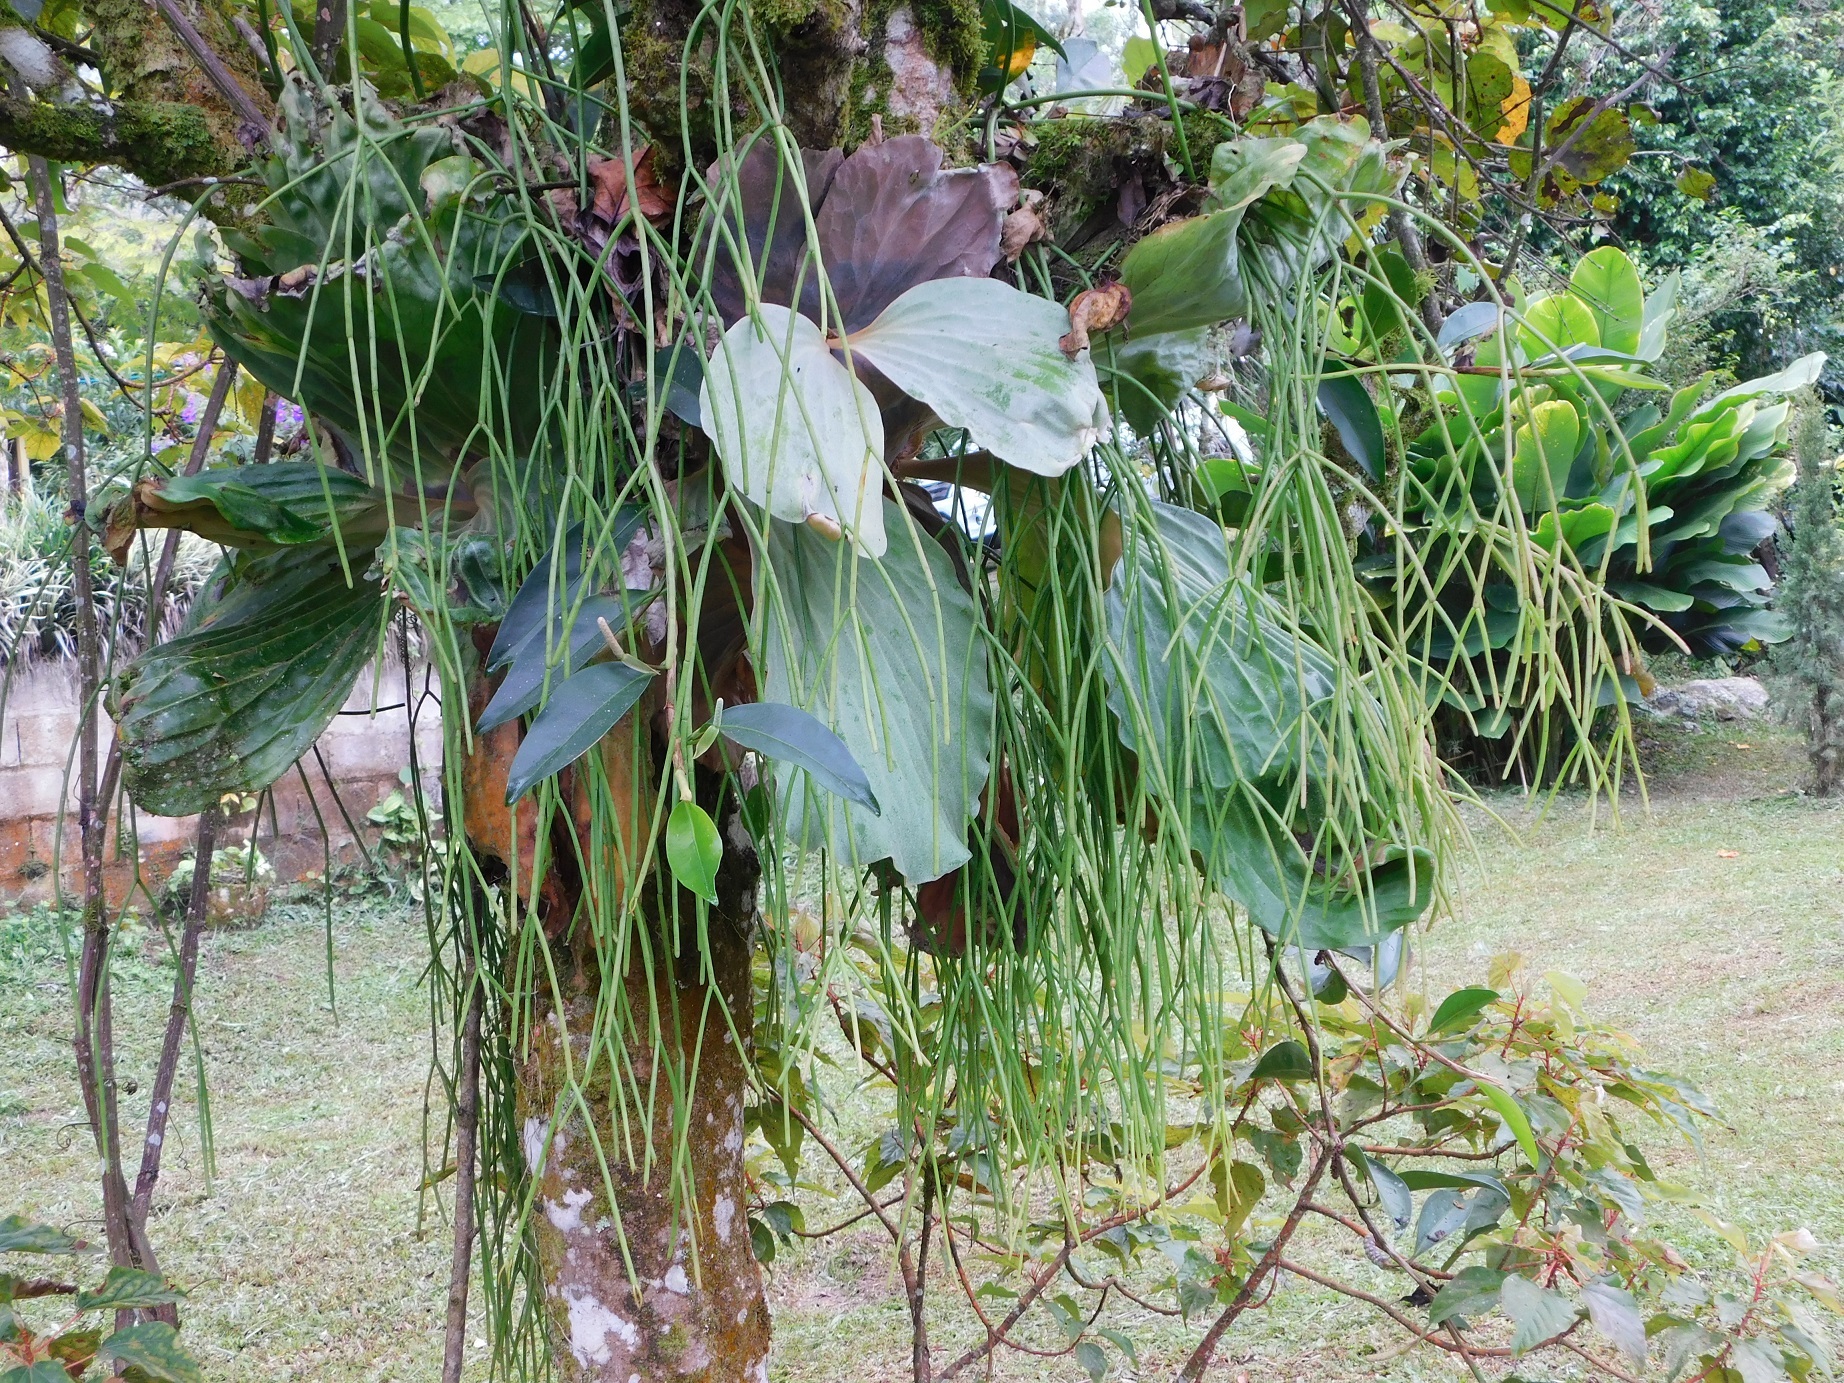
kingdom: Plantae
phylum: Tracheophyta
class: Magnoliopsida
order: Caryophyllales
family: Cactaceae
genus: Rhipsalis
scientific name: Rhipsalis baccifera
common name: Mistletoe cactus
